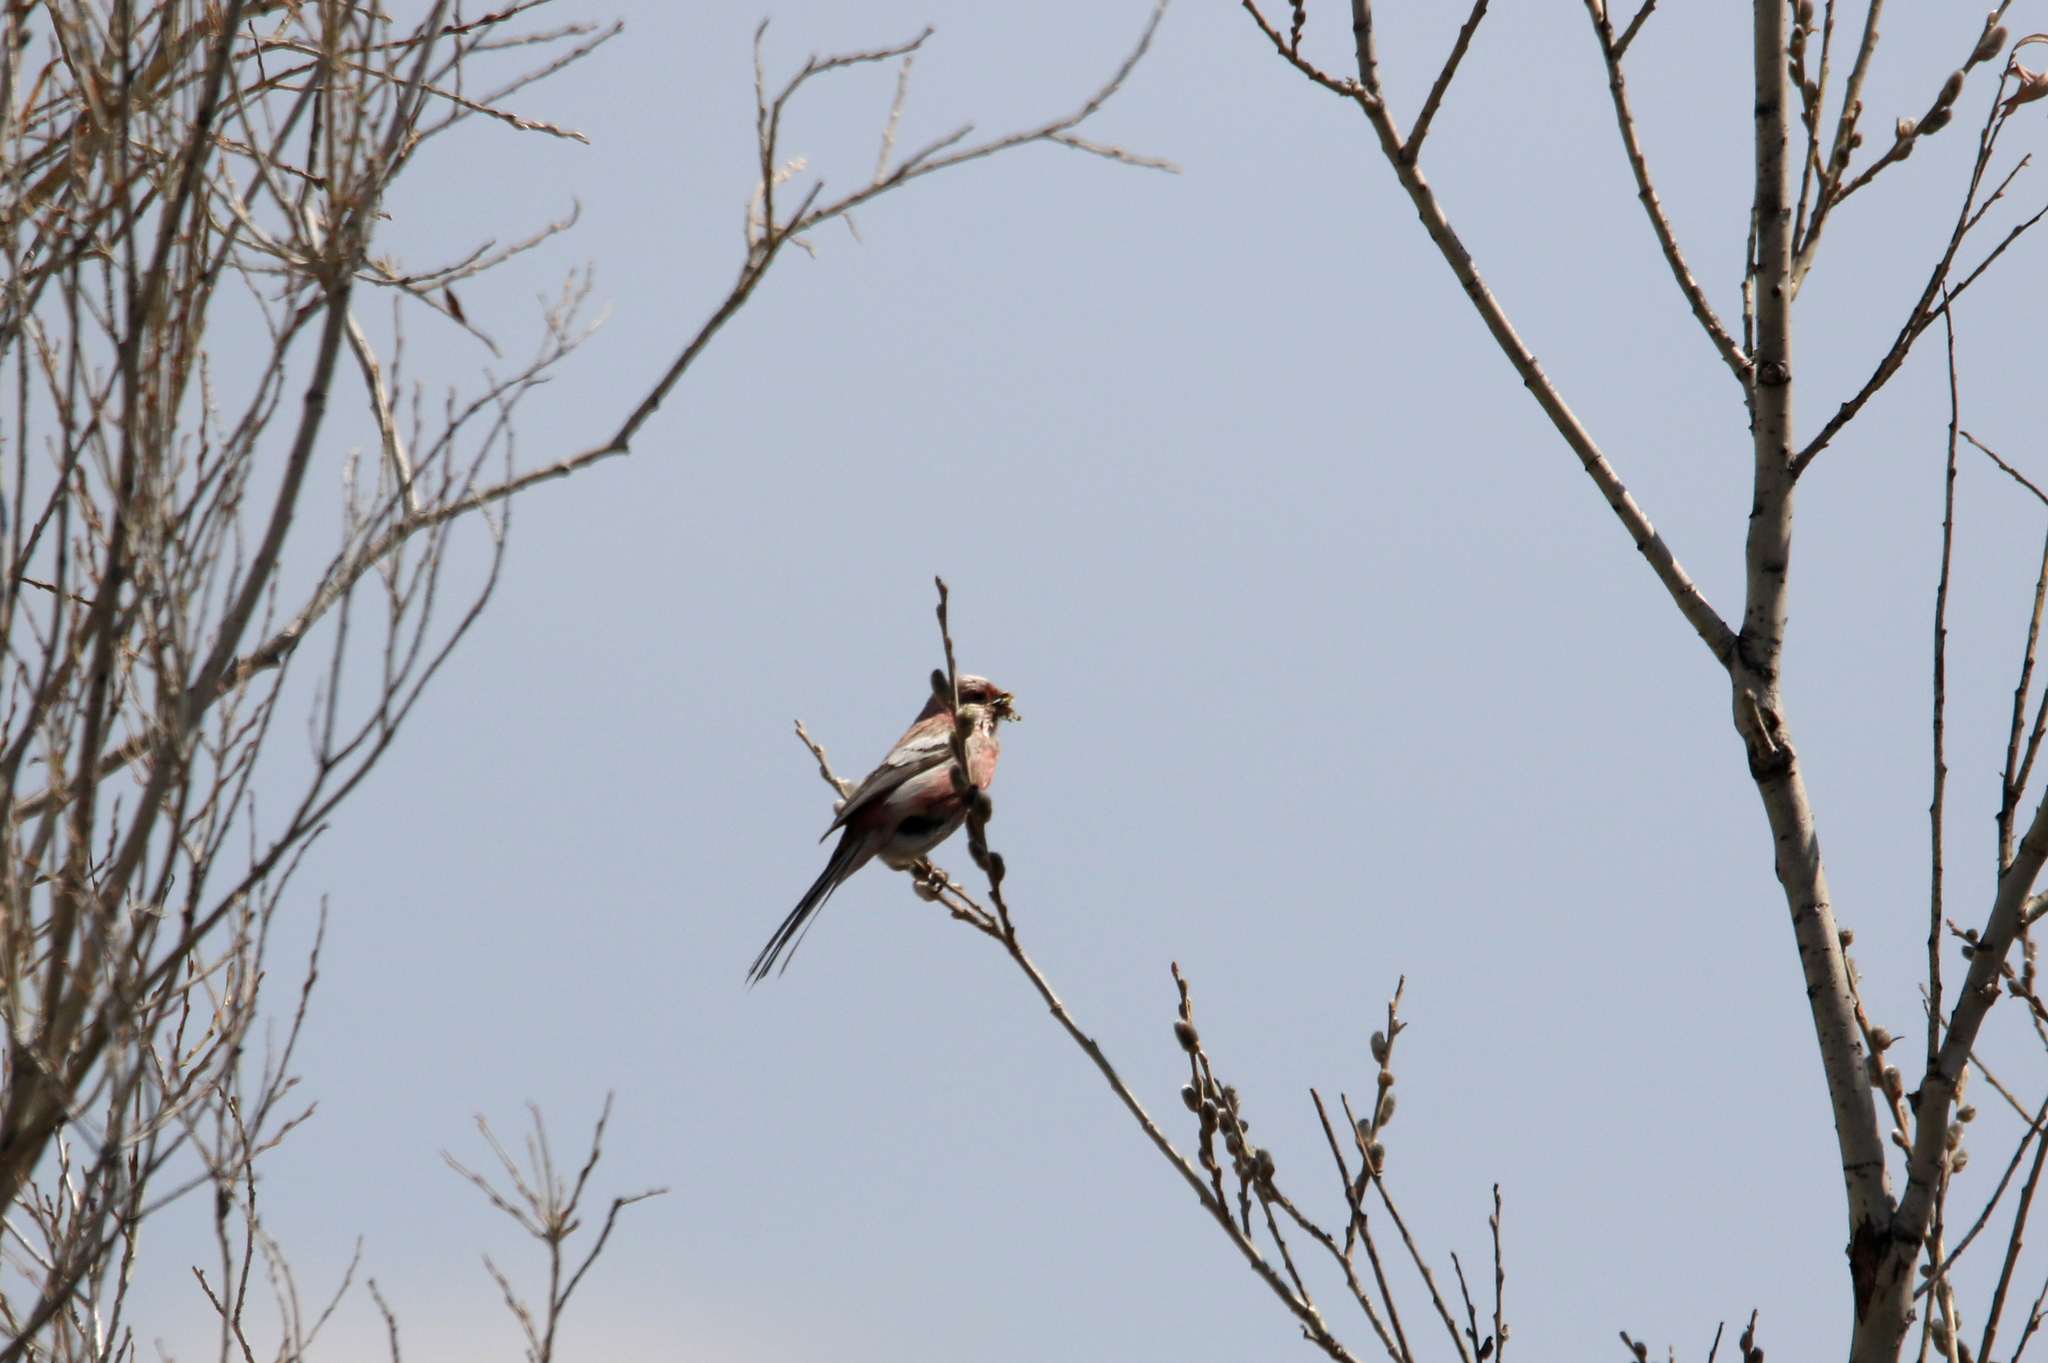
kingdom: Animalia
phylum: Chordata
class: Aves
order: Passeriformes
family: Fringillidae
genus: Carpodacus
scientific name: Carpodacus sibiricus
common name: Long-tailed rosefinch
